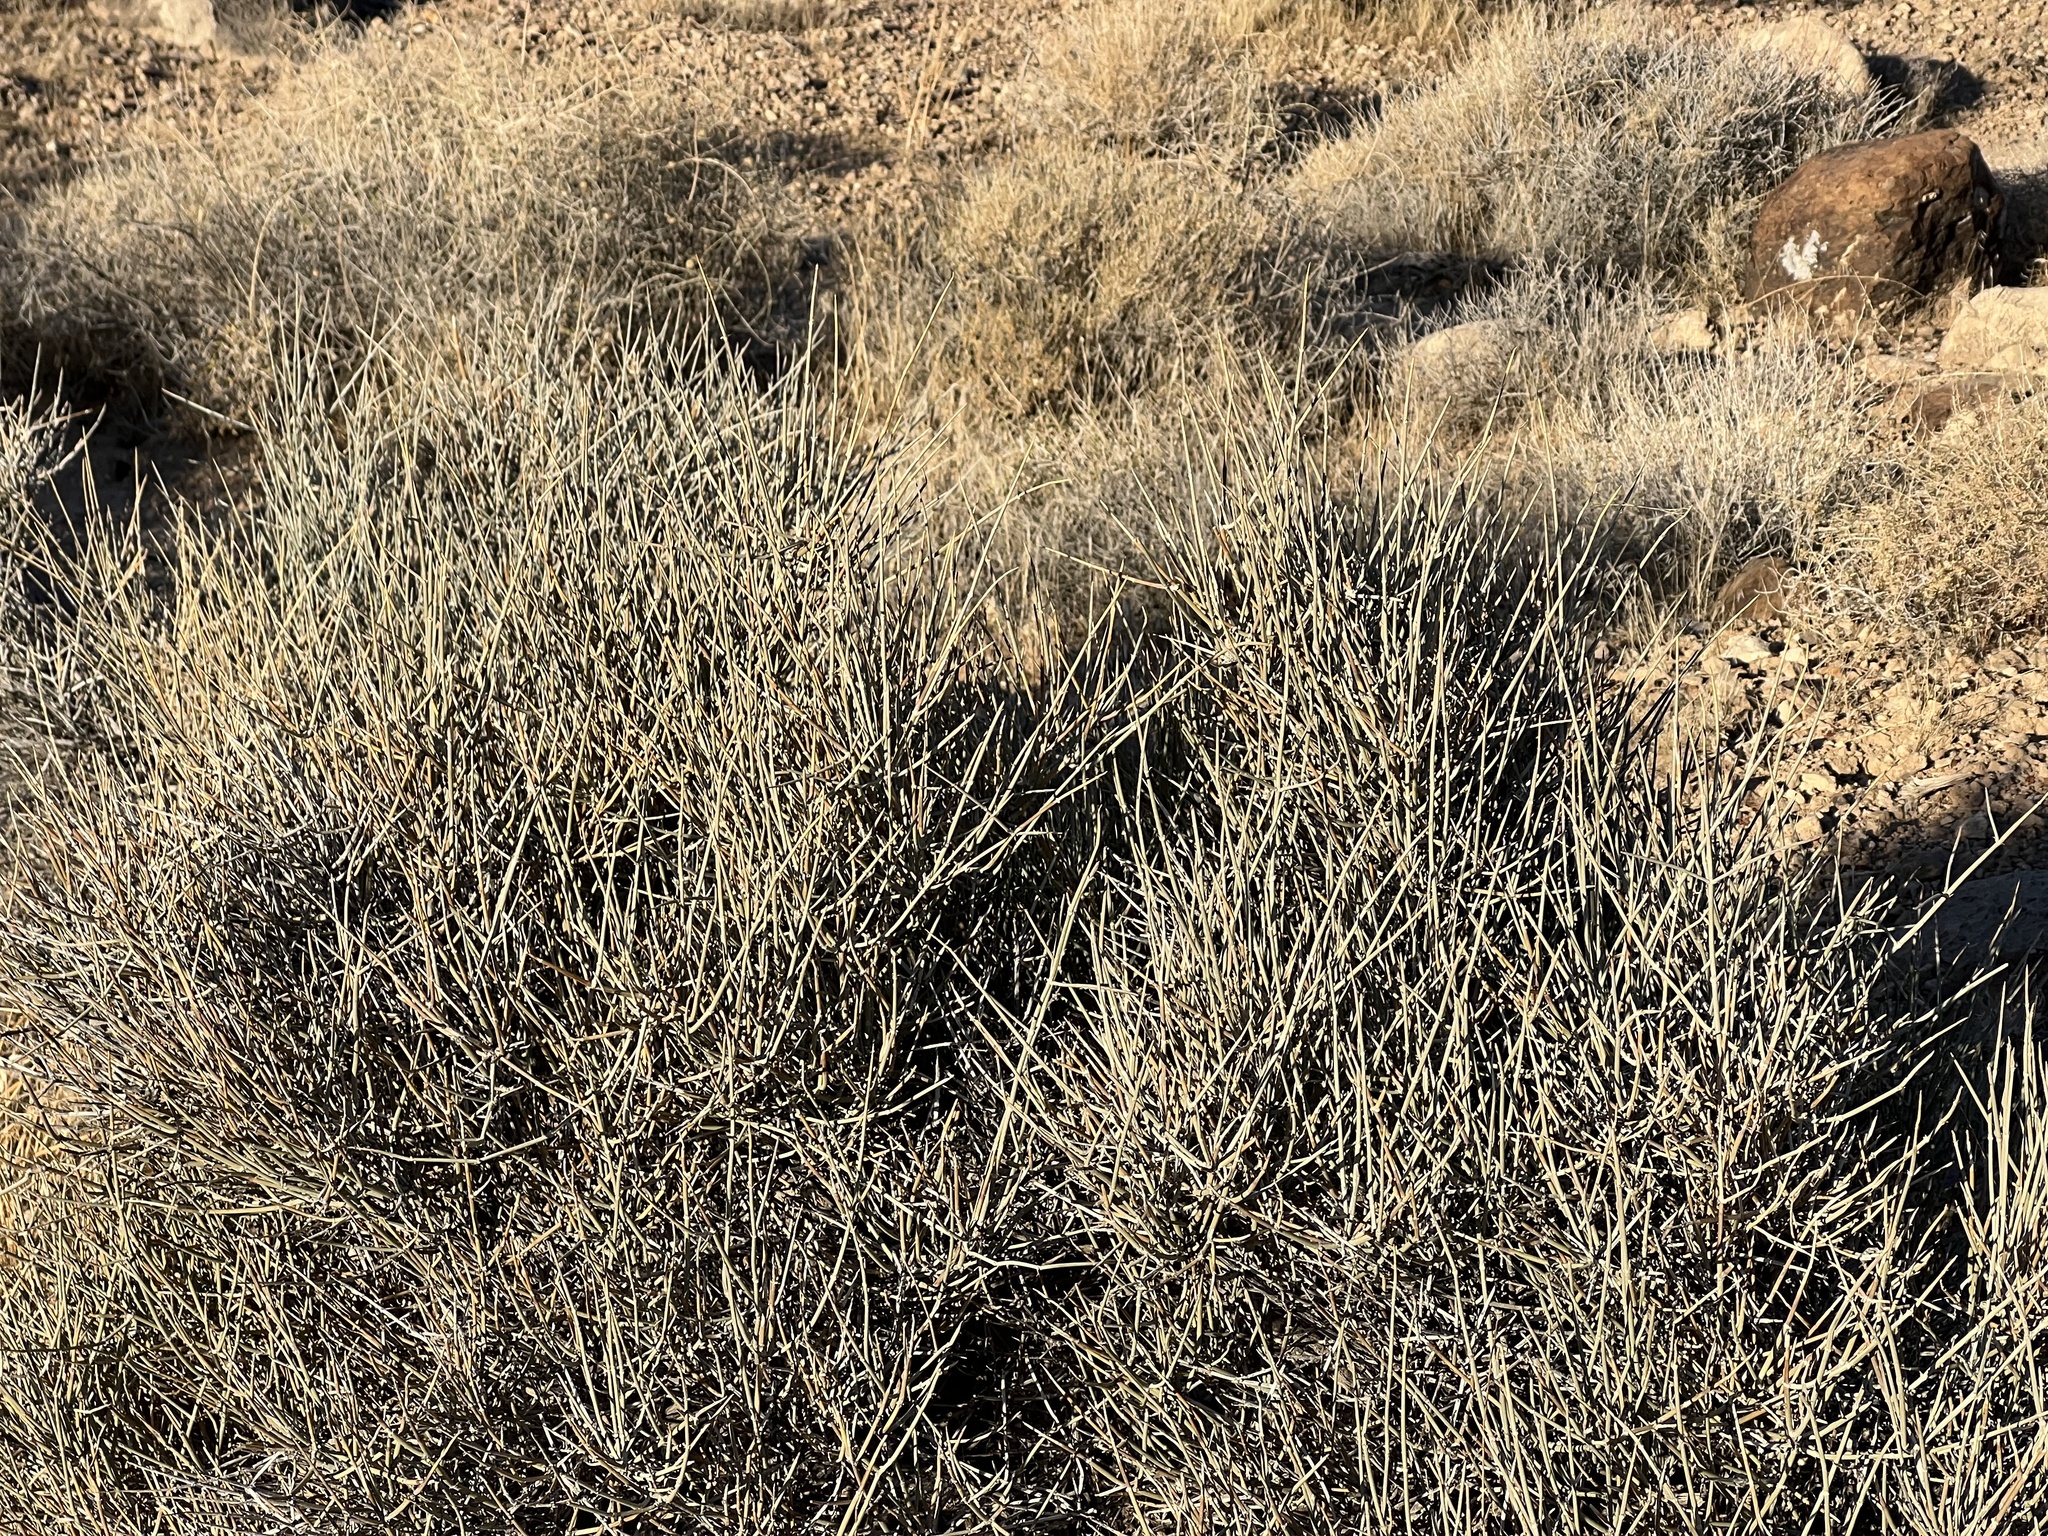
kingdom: Plantae
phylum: Tracheophyta
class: Gnetopsida
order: Ephedrales
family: Ephedraceae
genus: Ephedra
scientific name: Ephedra nevadensis
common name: Gray ephedra
